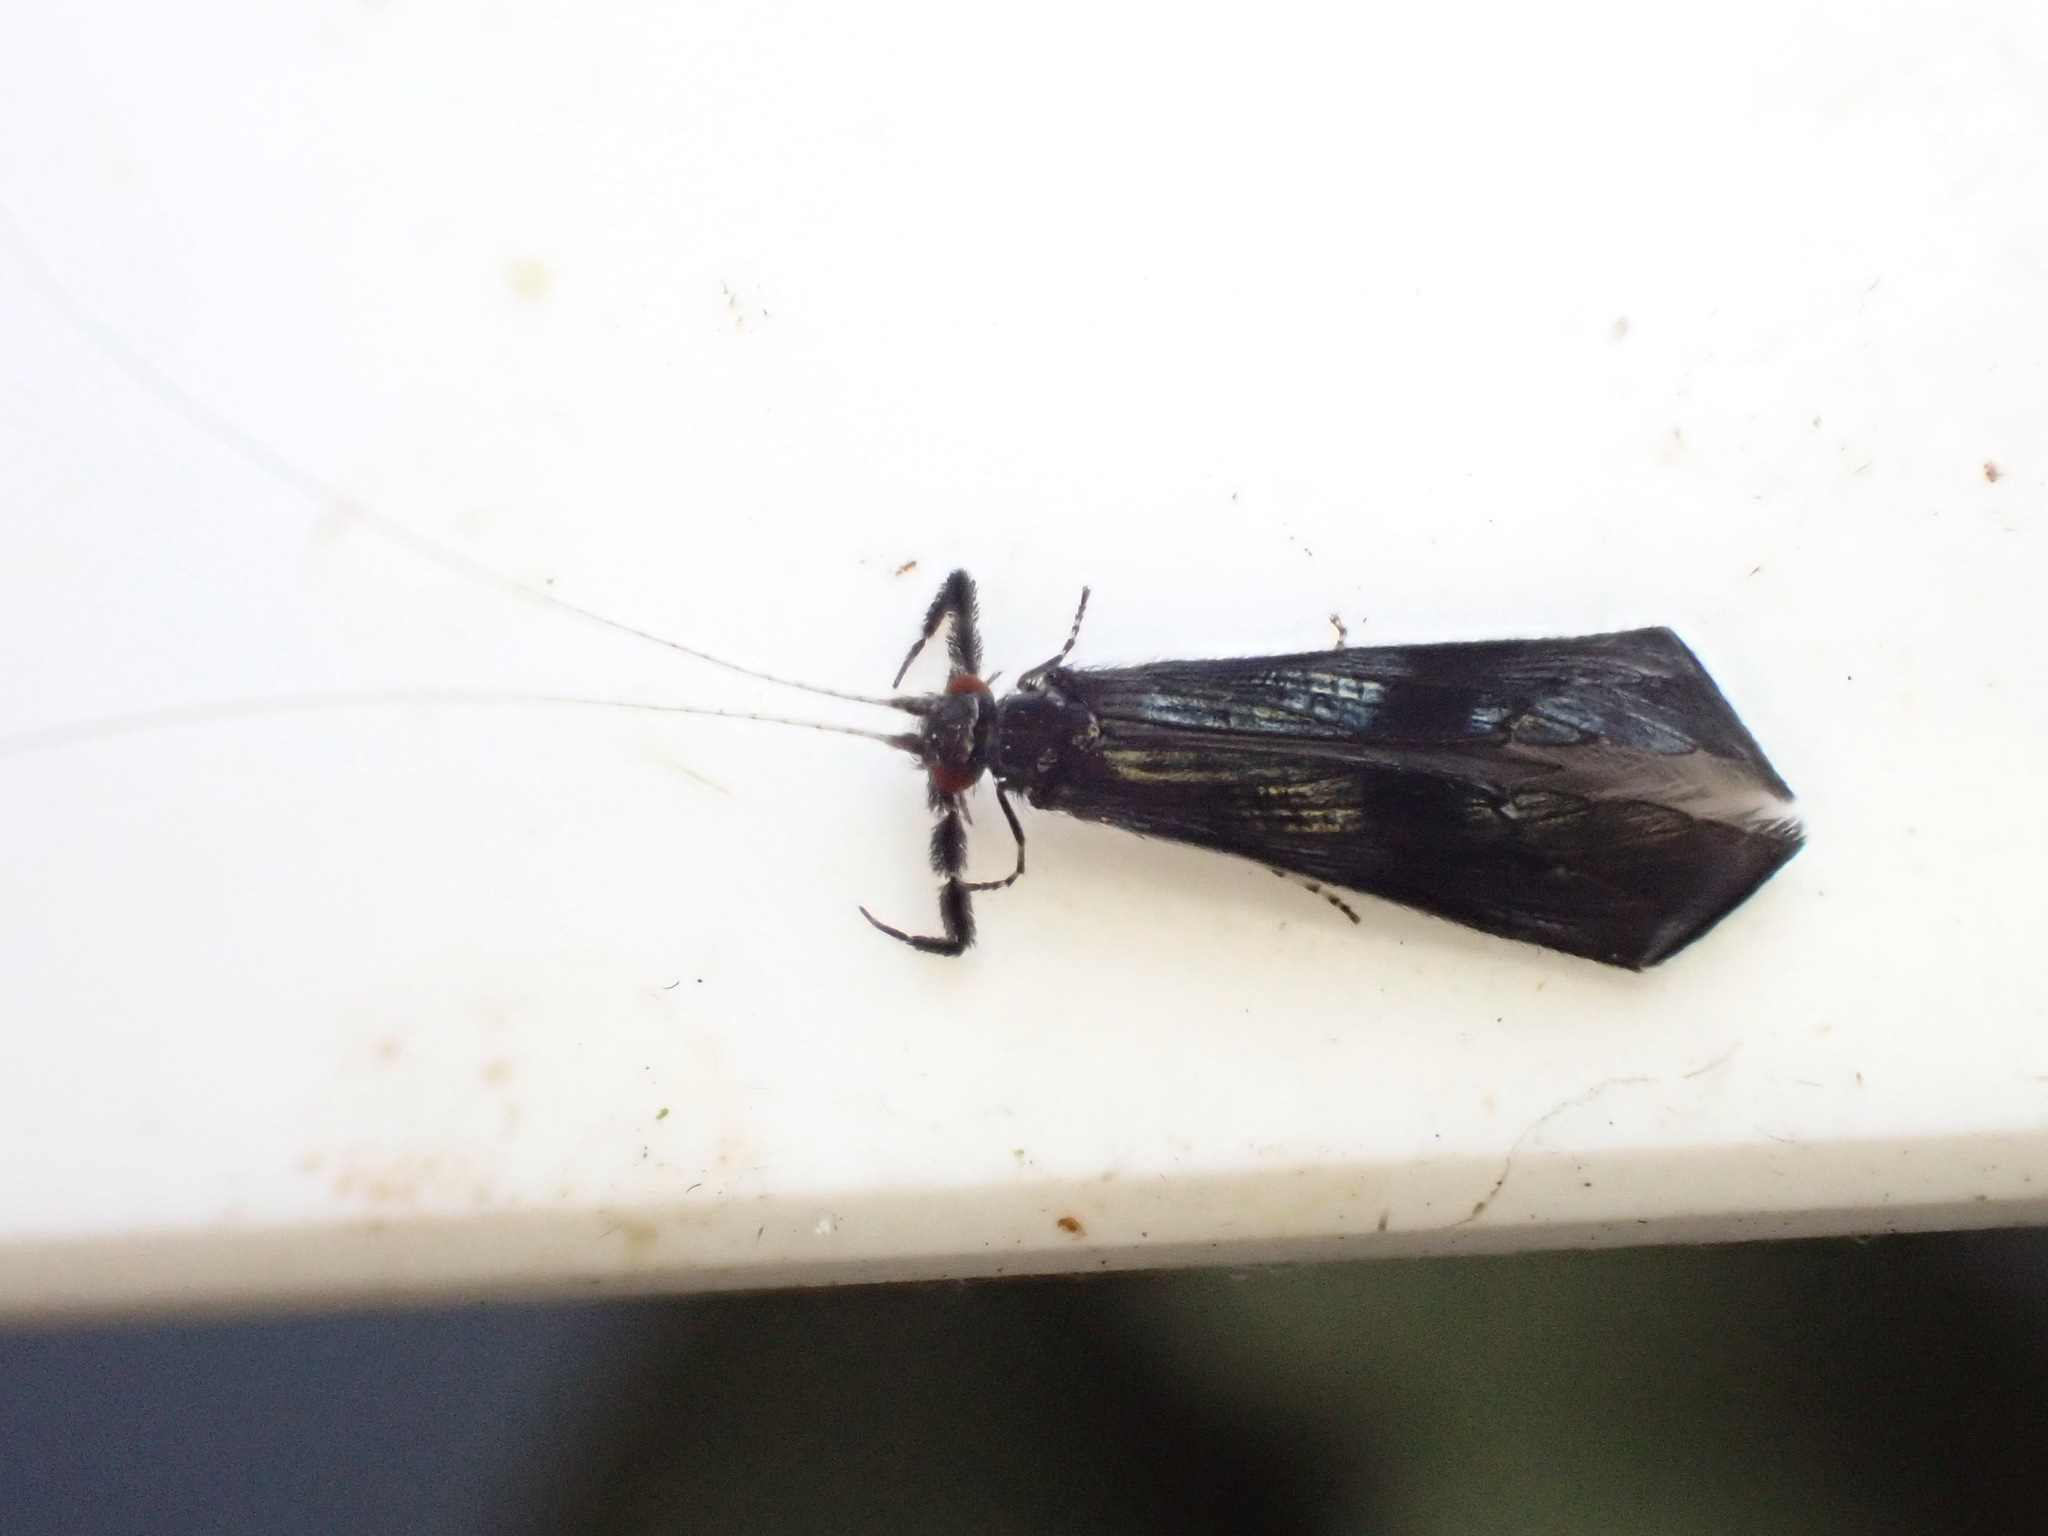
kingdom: Animalia
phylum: Arthropoda
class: Insecta
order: Trichoptera
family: Leptoceridae
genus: Mystacides
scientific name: Mystacides azureus
